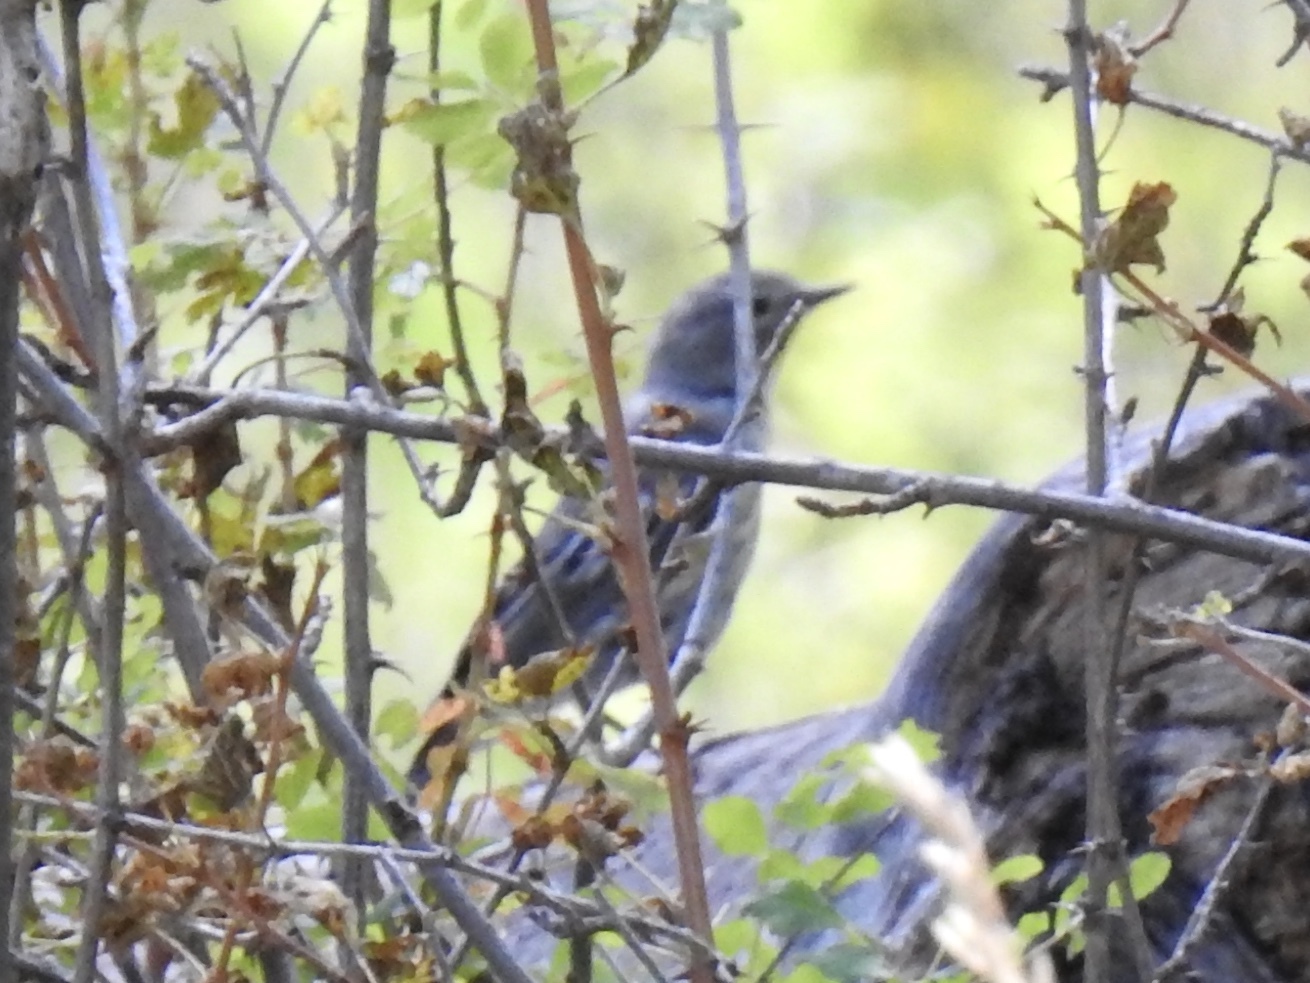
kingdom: Animalia
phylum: Chordata
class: Aves
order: Passeriformes
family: Parulidae
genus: Setophaga
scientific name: Setophaga coronata
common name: Myrtle warbler
